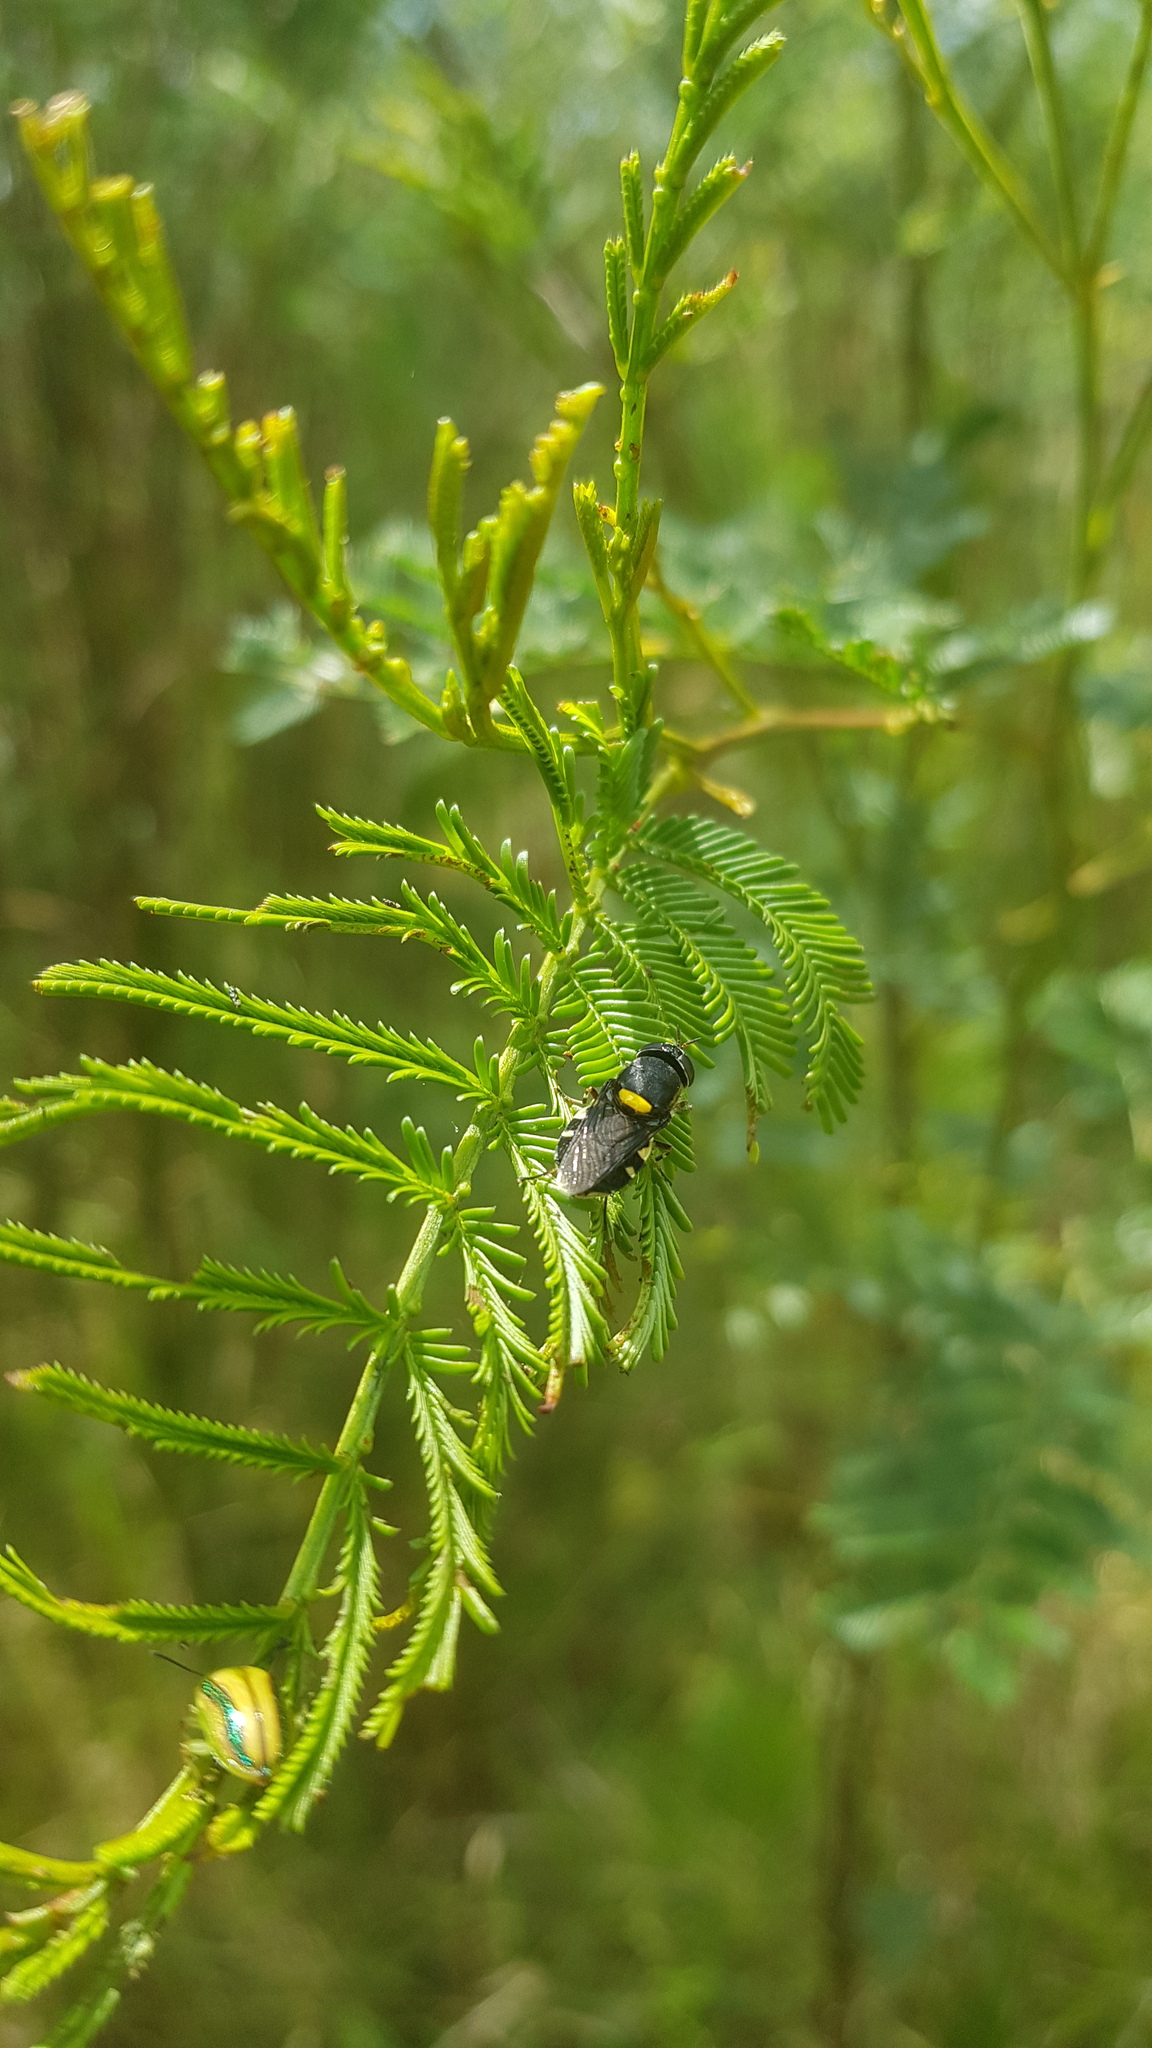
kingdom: Animalia
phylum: Arthropoda
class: Insecta
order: Diptera
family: Stratiomyidae
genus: Odontomyia
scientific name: Odontomyia hunteri
